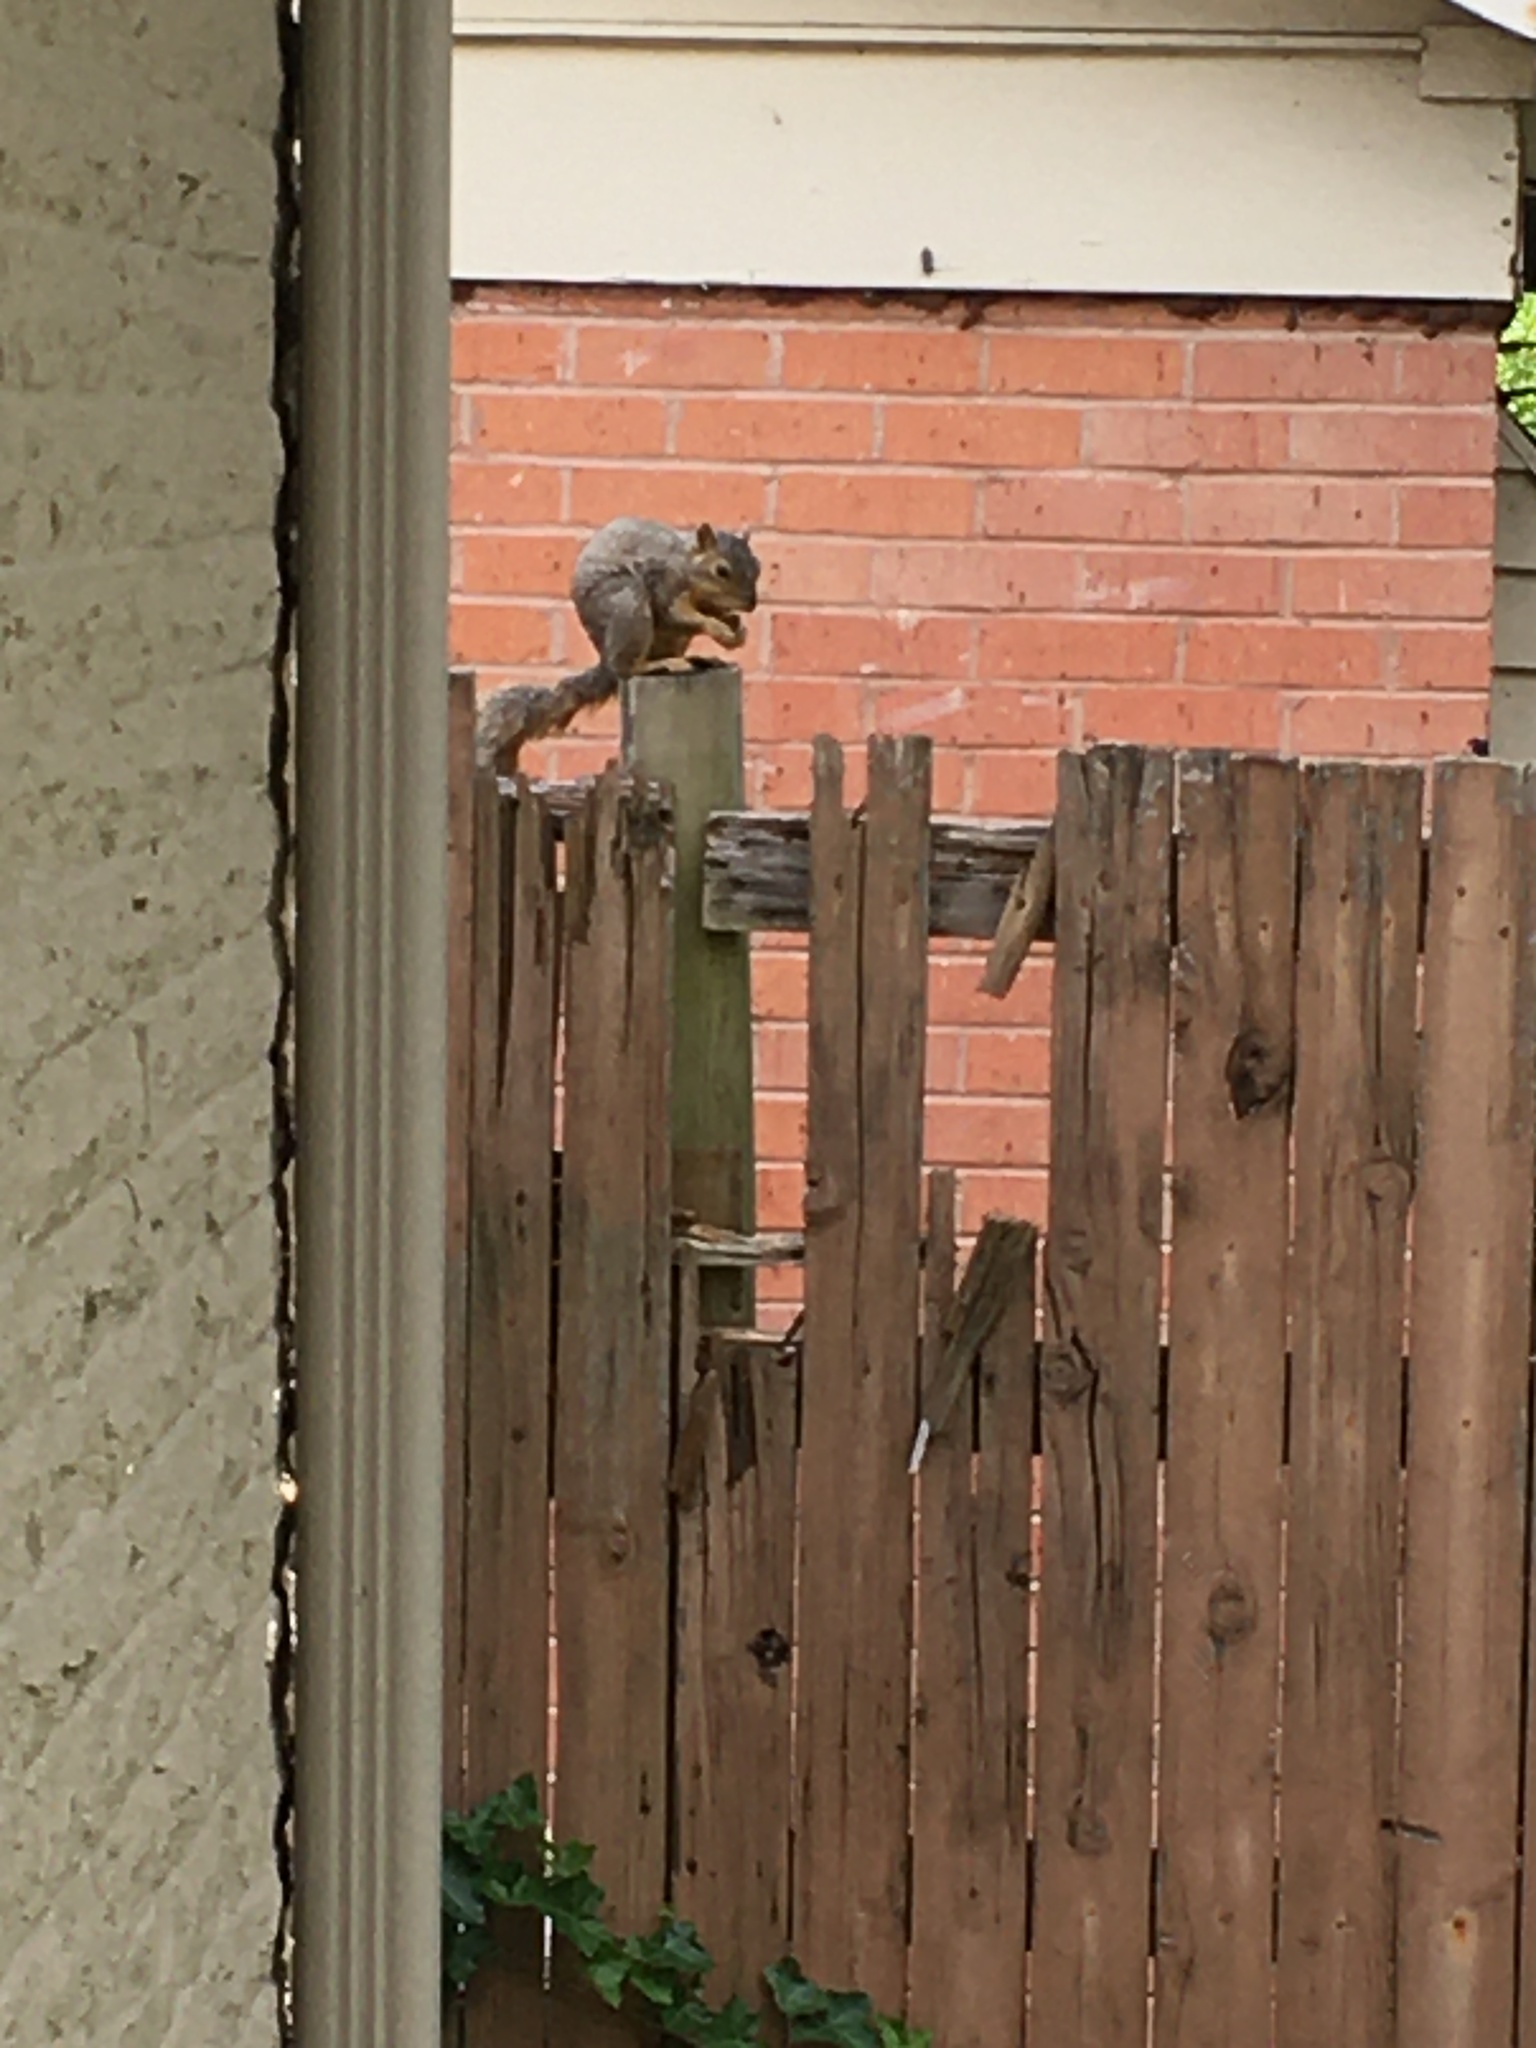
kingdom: Animalia
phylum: Chordata
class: Mammalia
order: Rodentia
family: Sciuridae
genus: Sciurus
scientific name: Sciurus niger
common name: Fox squirrel
